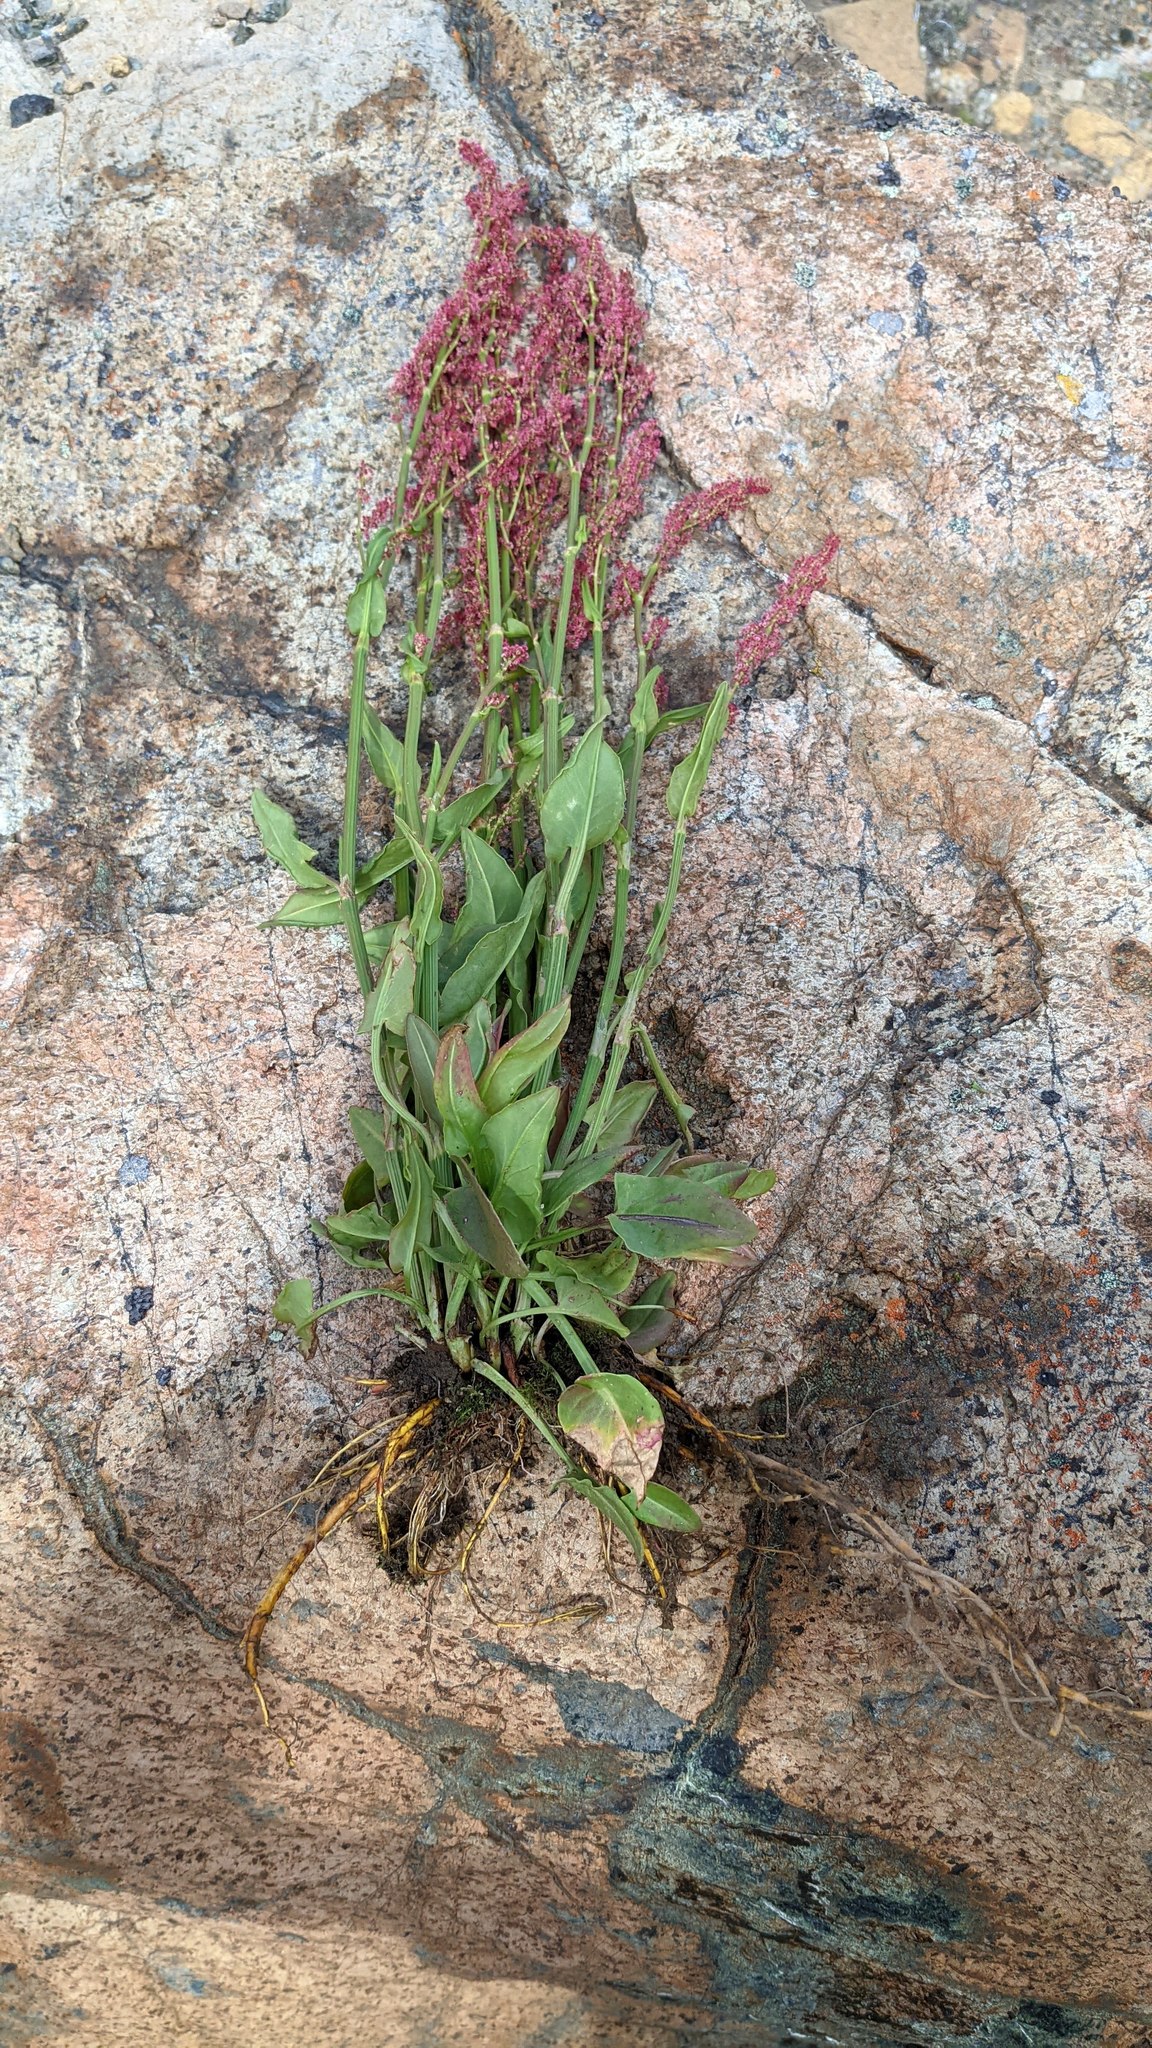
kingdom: Plantae
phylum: Tracheophyta
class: Magnoliopsida
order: Caryophyllales
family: Polygonaceae
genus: Rumex
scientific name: Rumex lapponicus
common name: Lapland mountain sorrel
